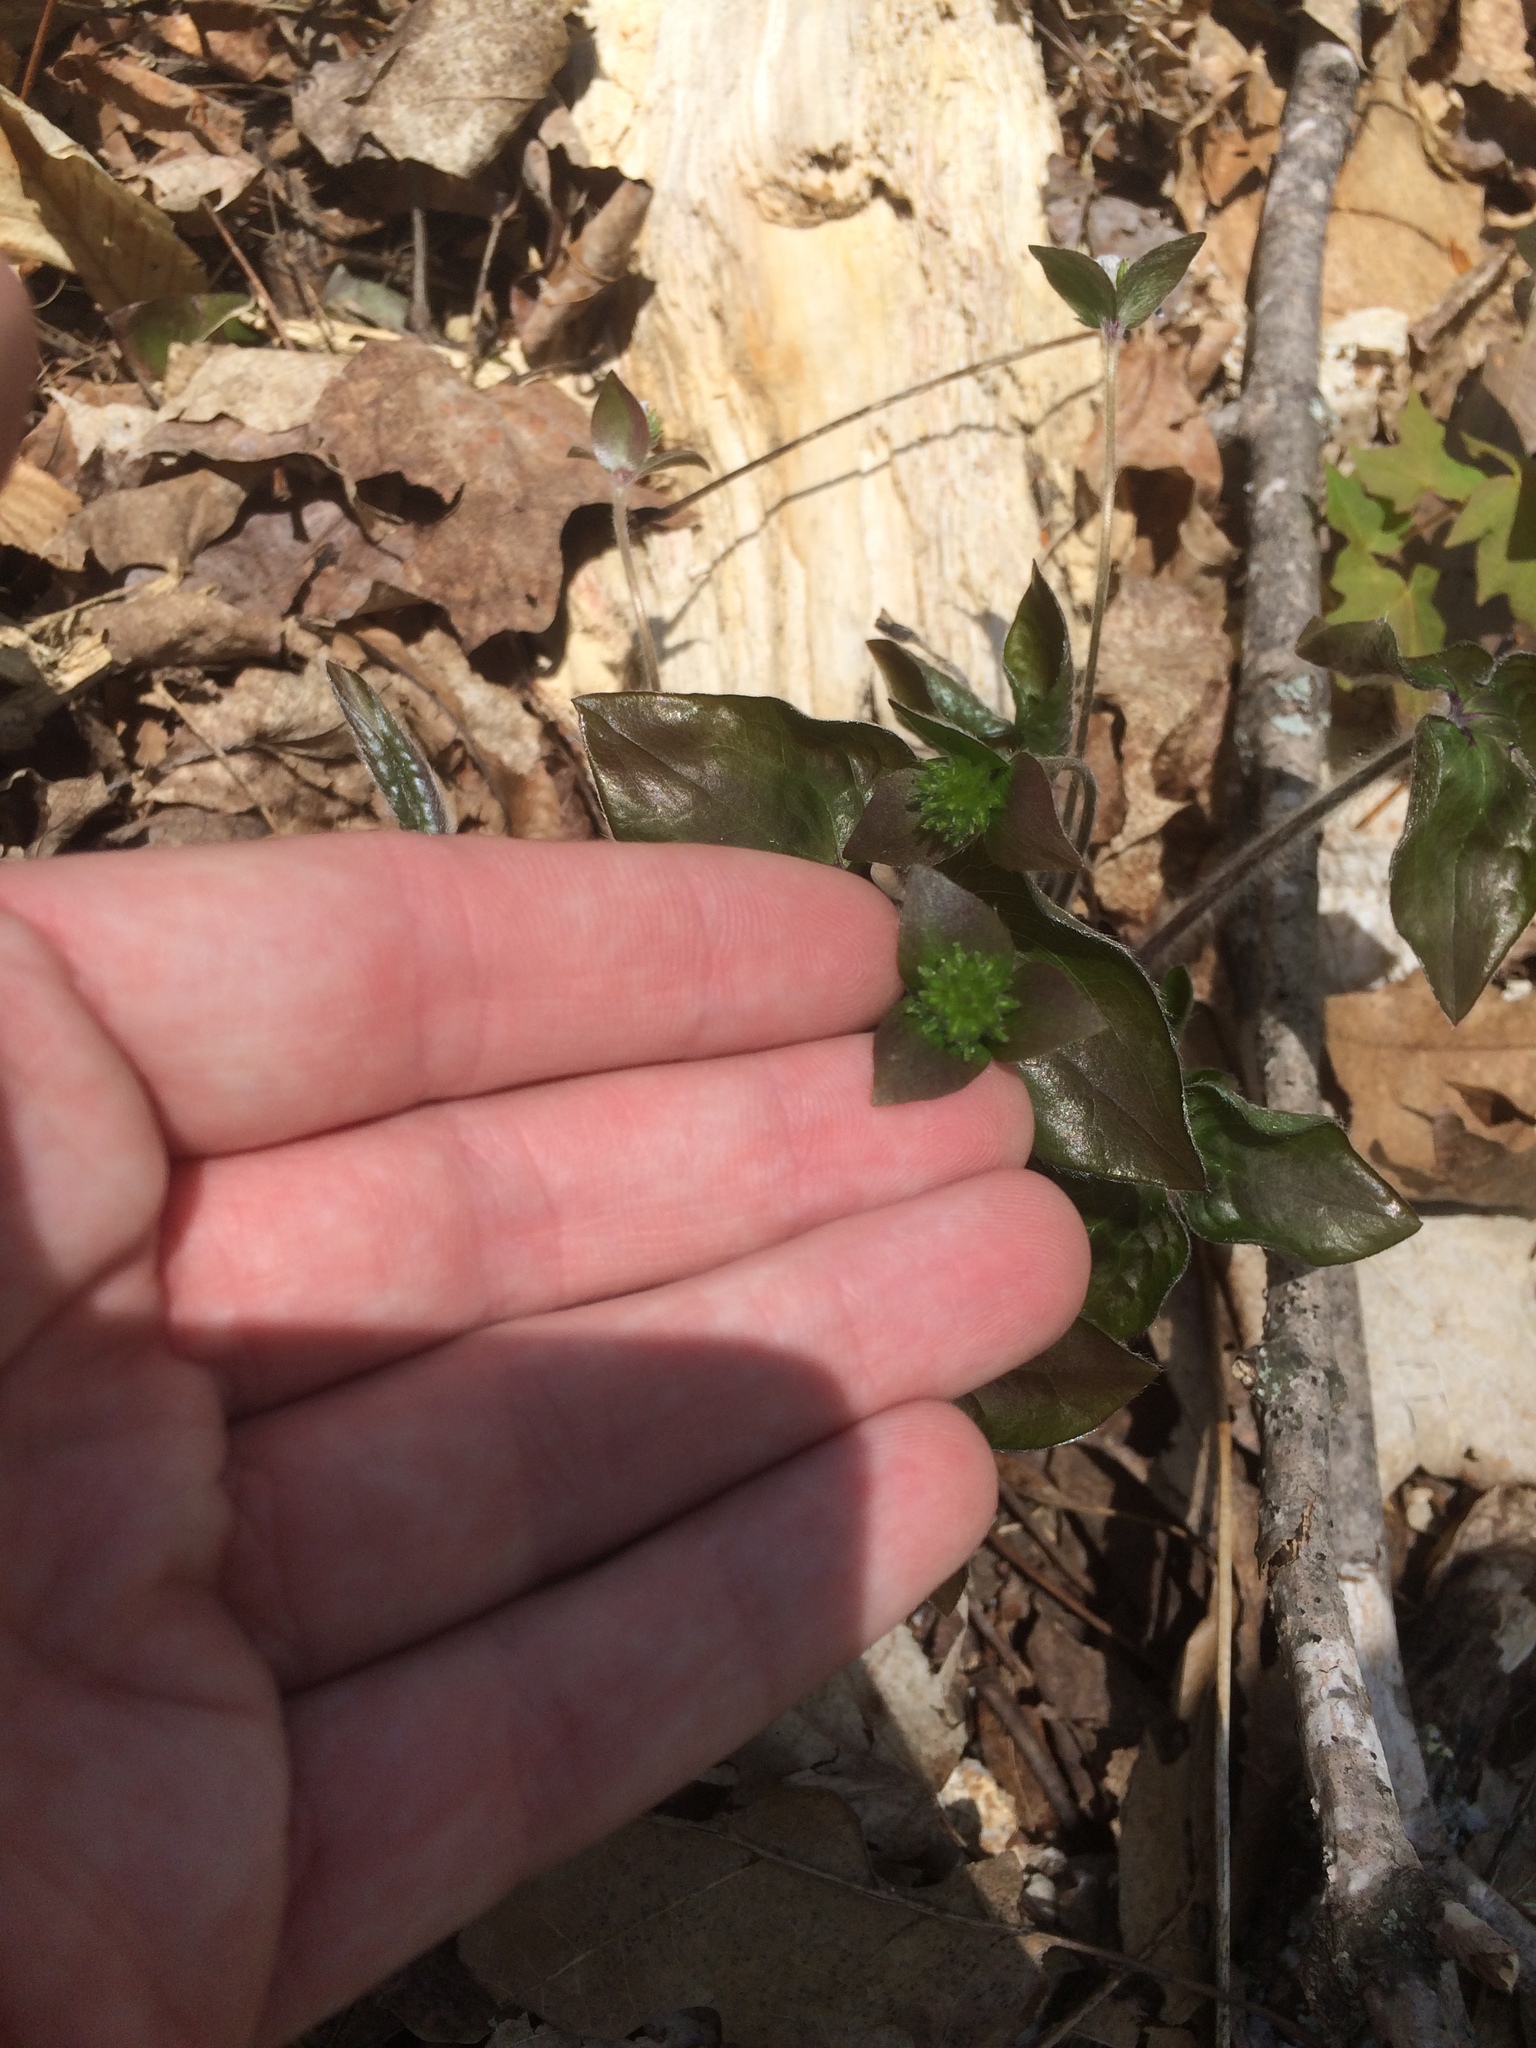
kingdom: Plantae
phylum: Tracheophyta
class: Magnoliopsida
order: Ranunculales
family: Ranunculaceae
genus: Hepatica
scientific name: Hepatica acutiloba
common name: Sharp-lobed hepatica
